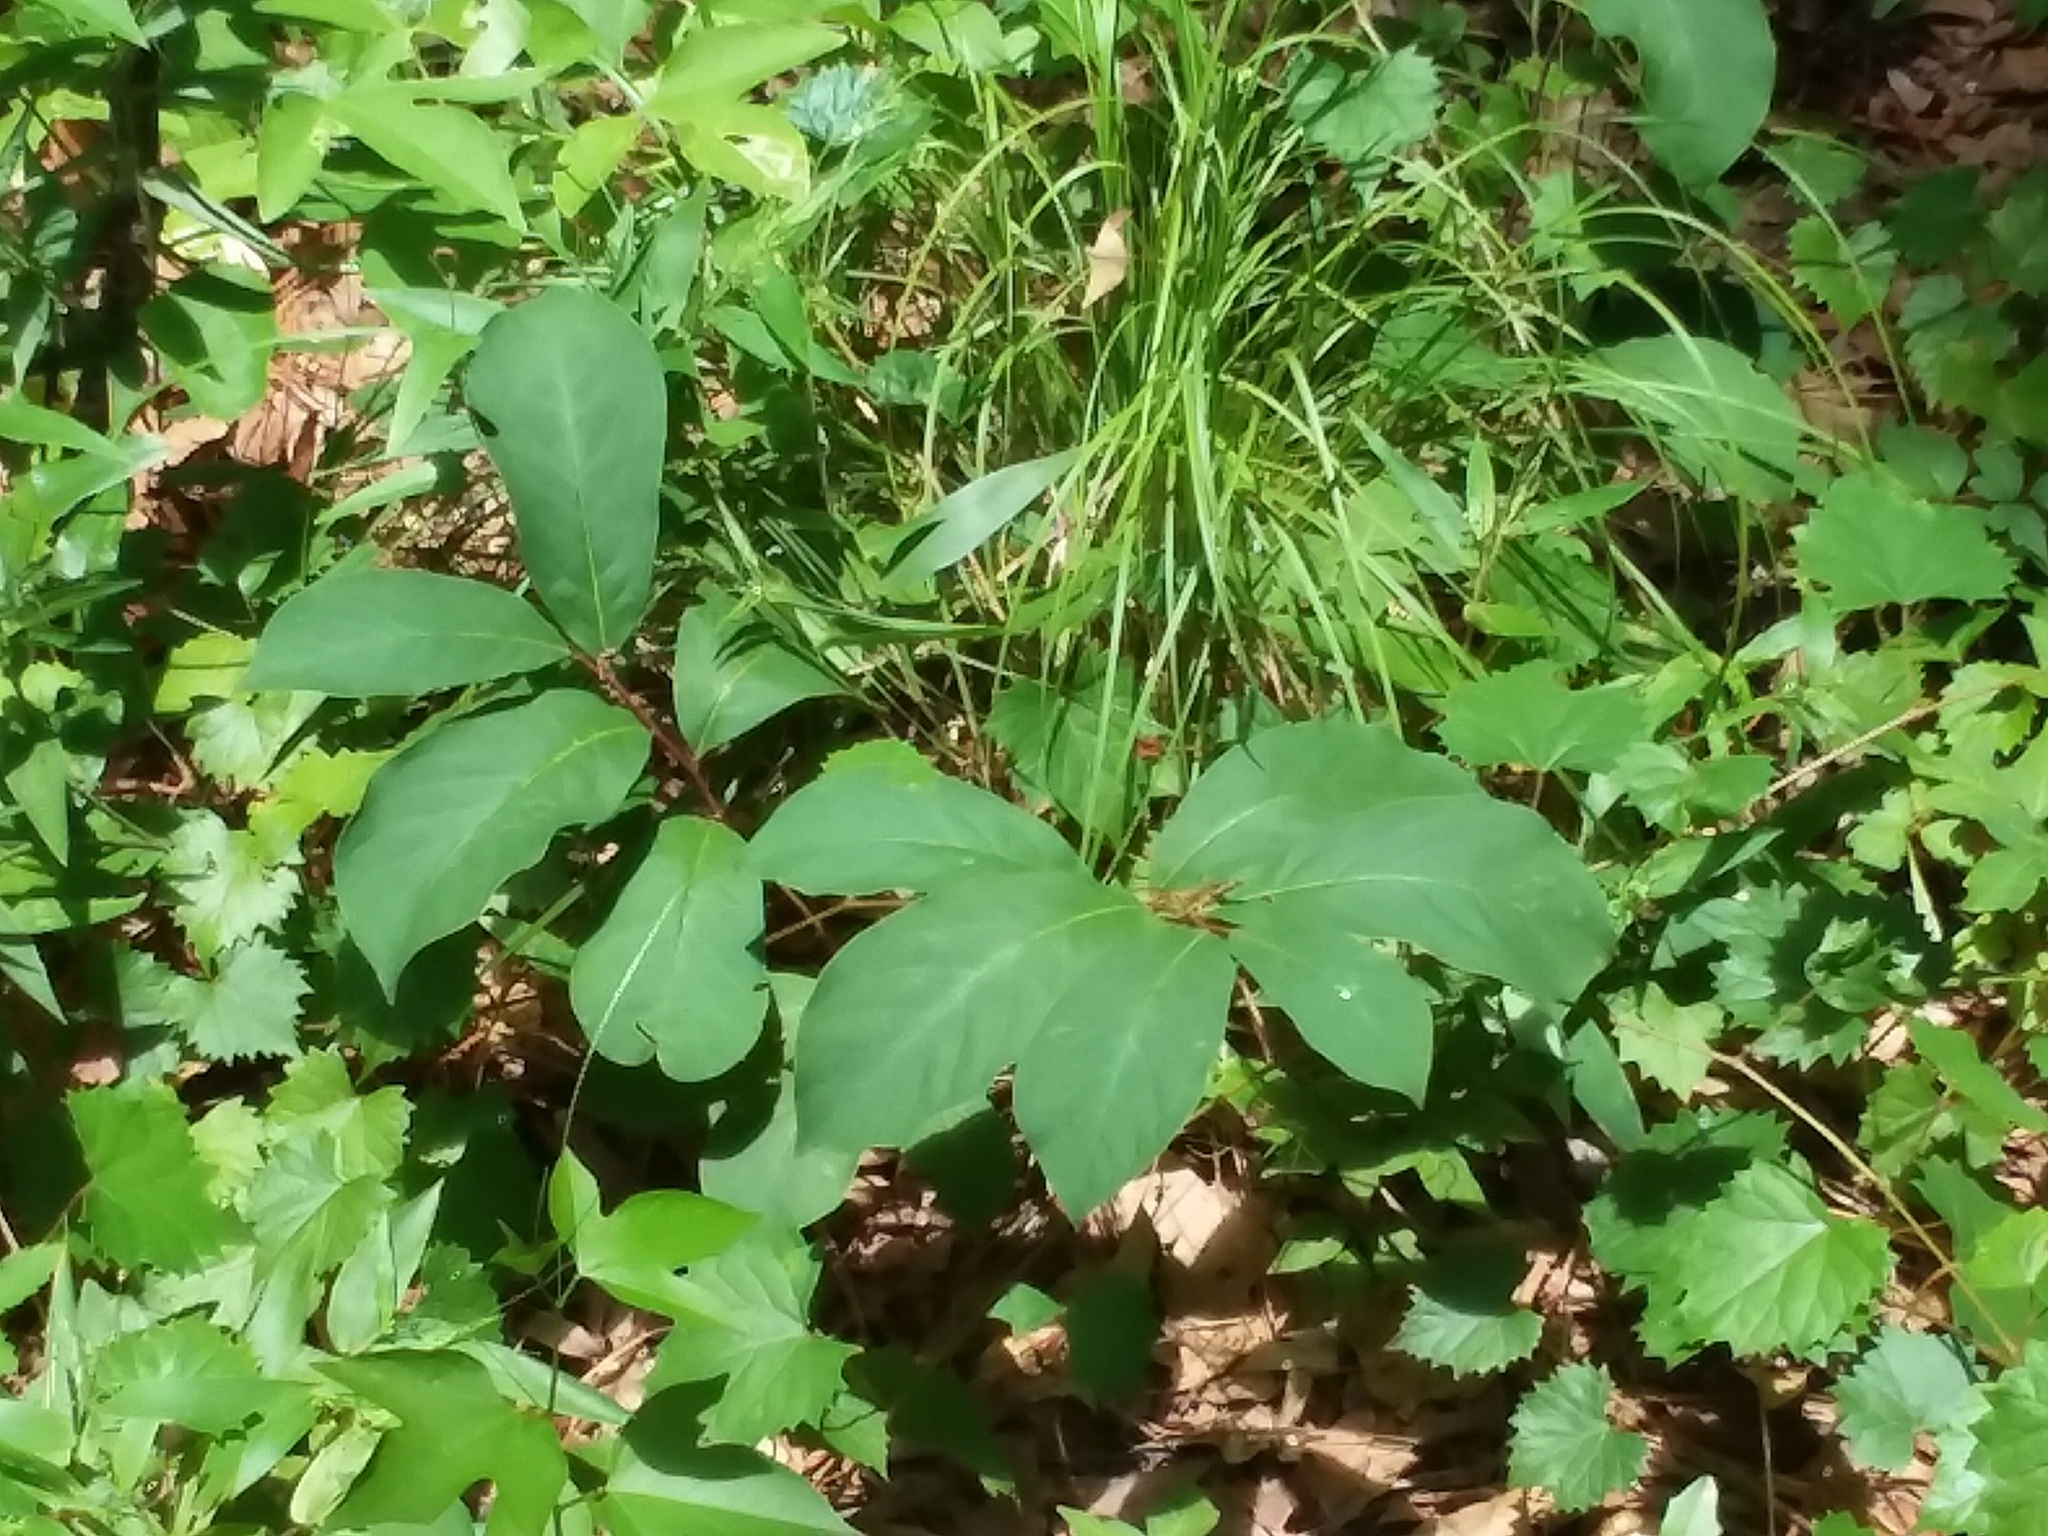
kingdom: Plantae
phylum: Tracheophyta
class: Magnoliopsida
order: Magnoliales
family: Annonaceae
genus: Asimina
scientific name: Asimina parviflora
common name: Dwarf pawpaw
